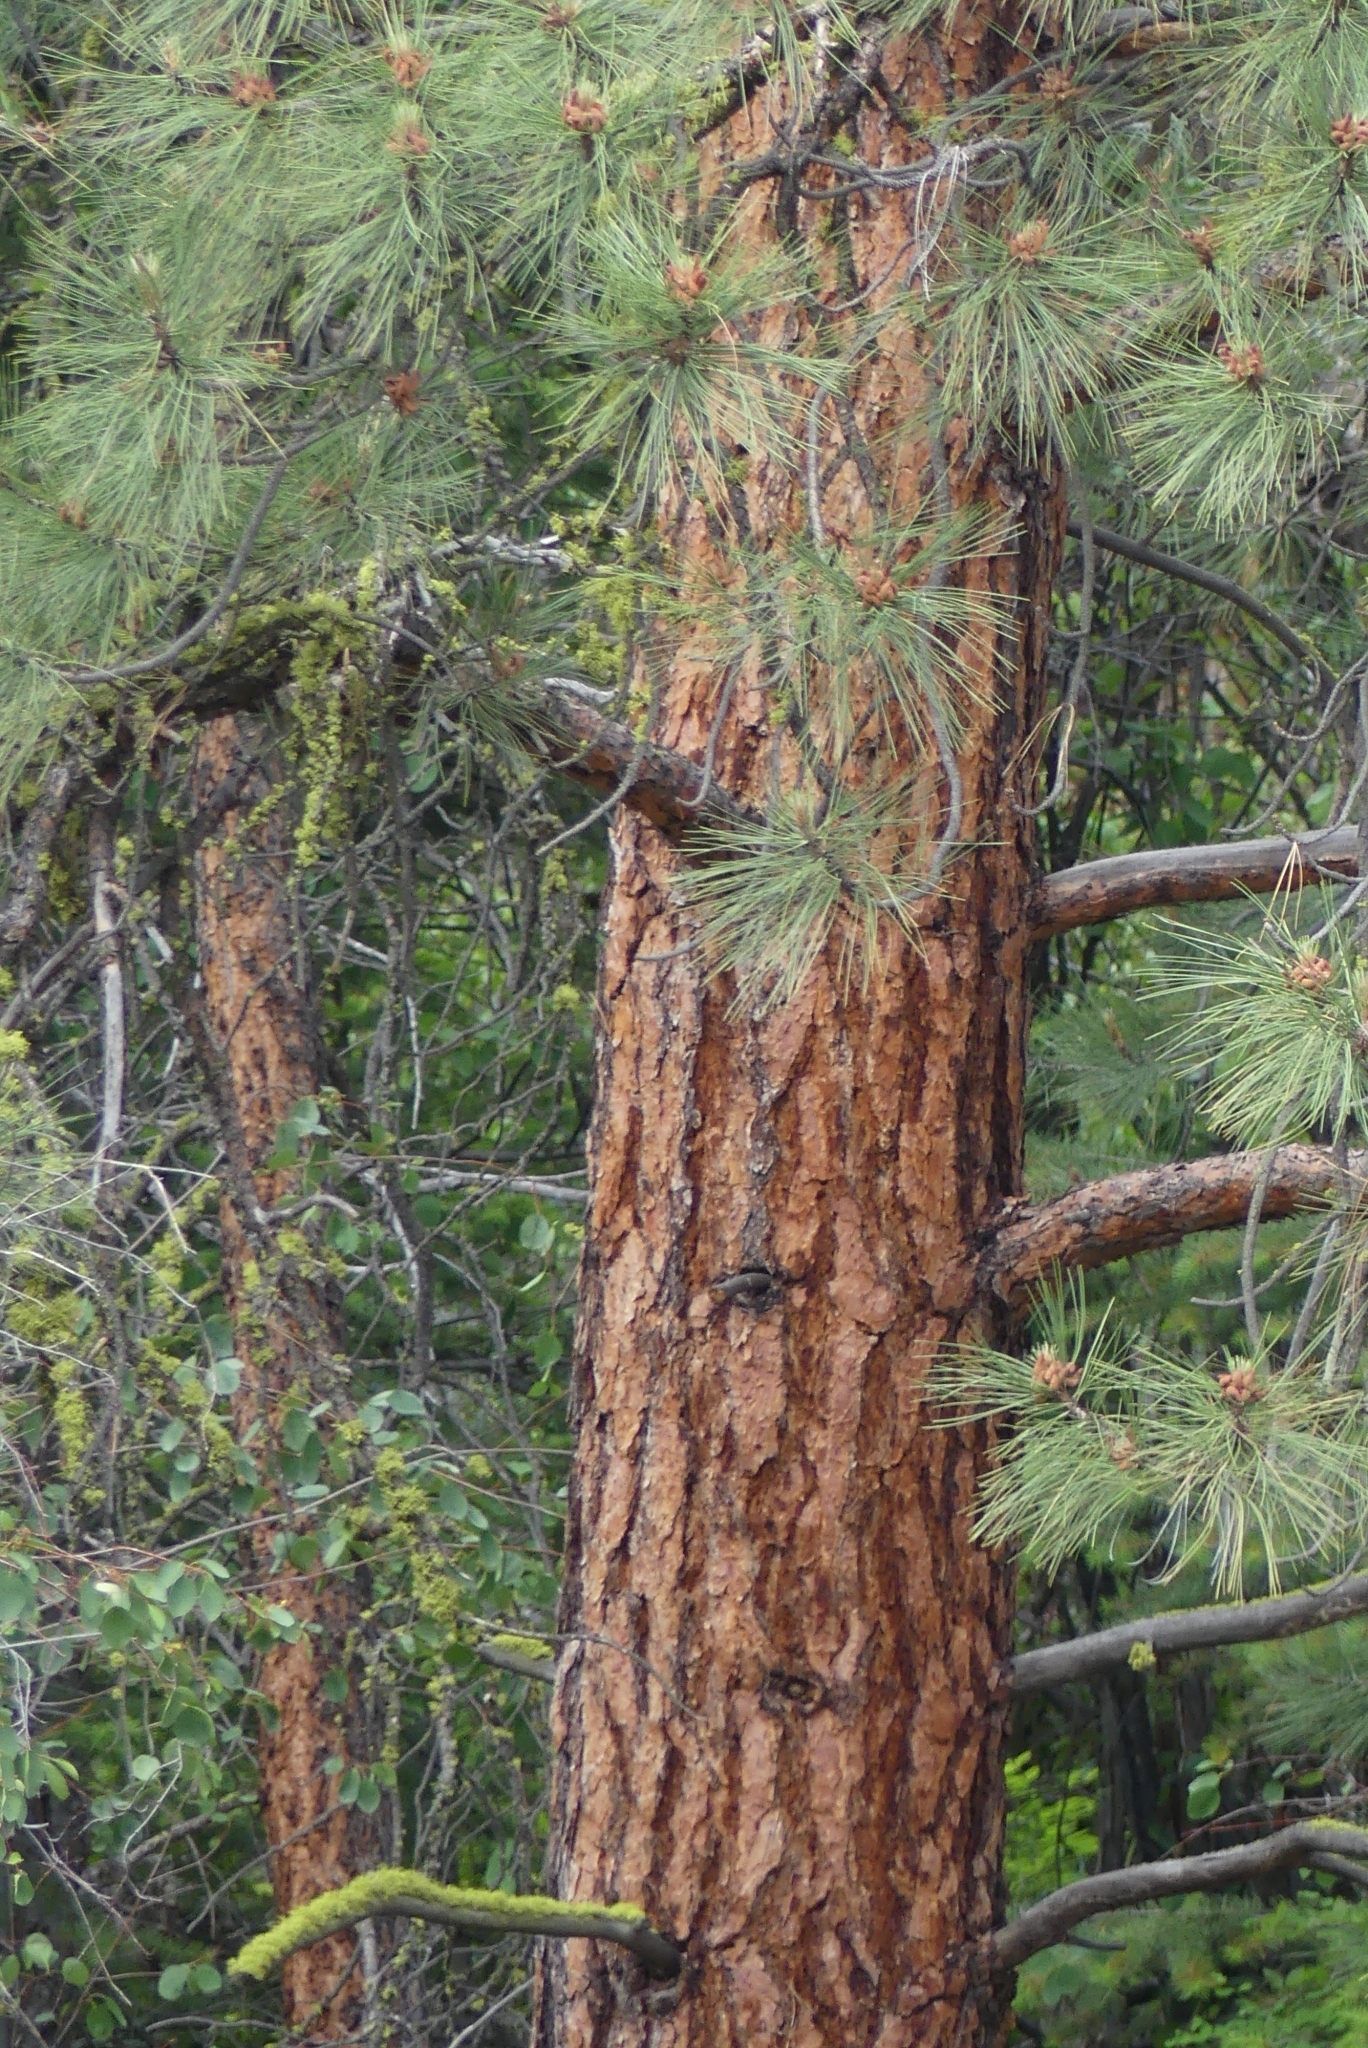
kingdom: Plantae
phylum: Tracheophyta
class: Pinopsida
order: Pinales
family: Pinaceae
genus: Pinus
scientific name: Pinus ponderosa
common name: Western yellow-pine
